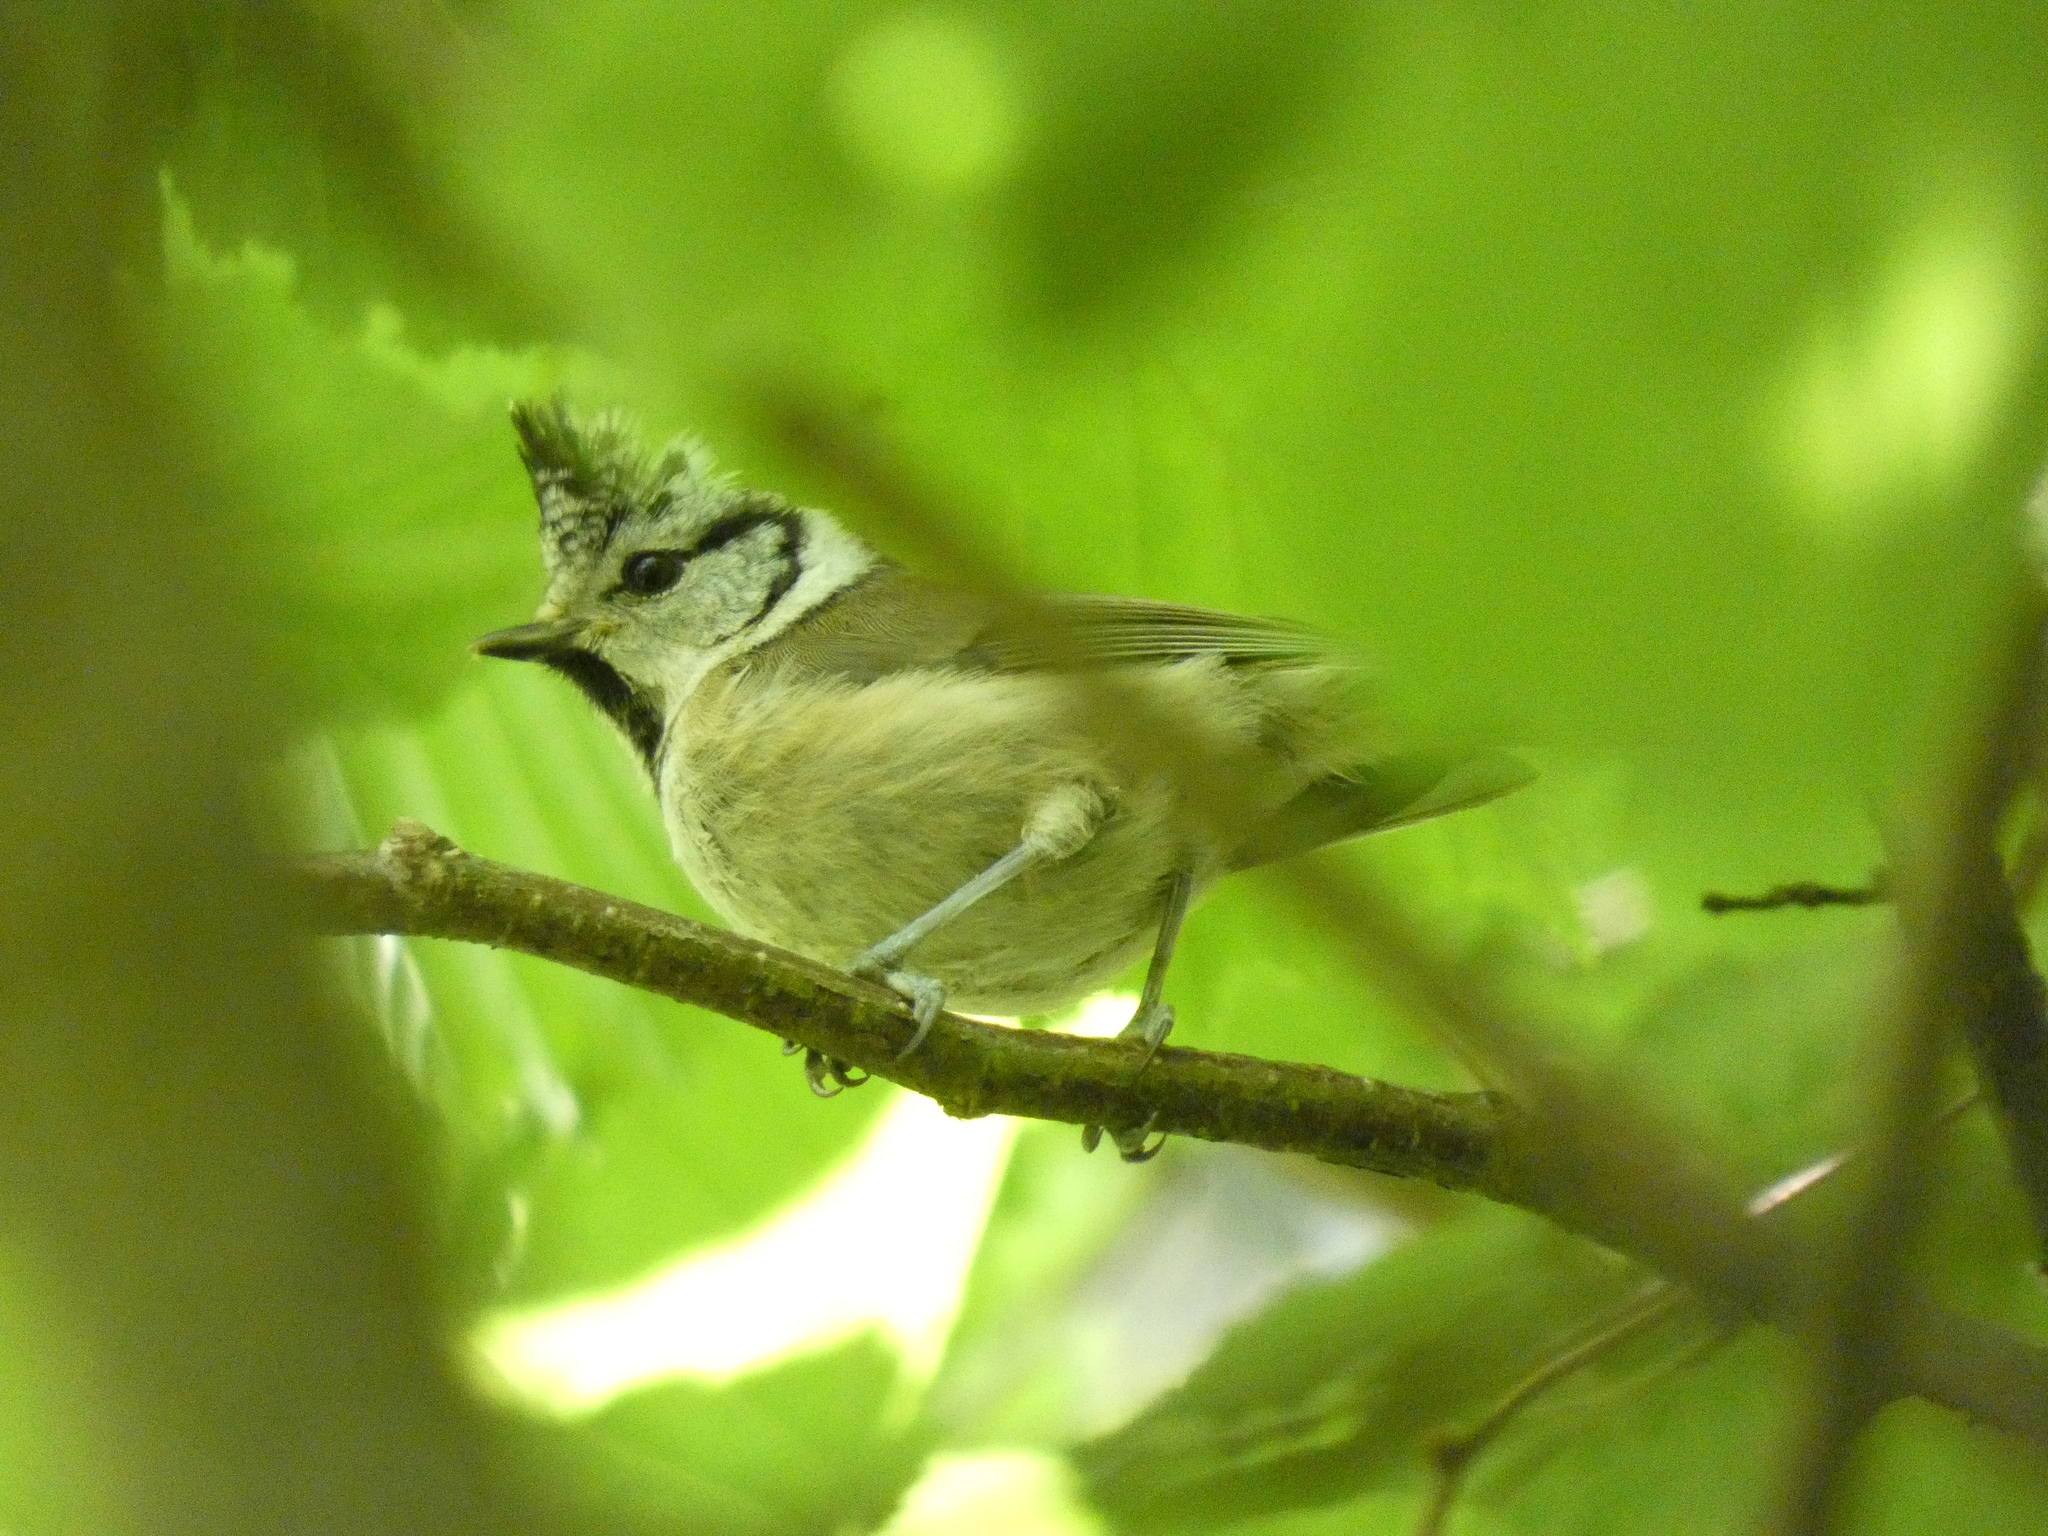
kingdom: Animalia
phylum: Chordata
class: Aves
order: Passeriformes
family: Paridae
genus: Lophophanes
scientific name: Lophophanes cristatus
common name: European crested tit
